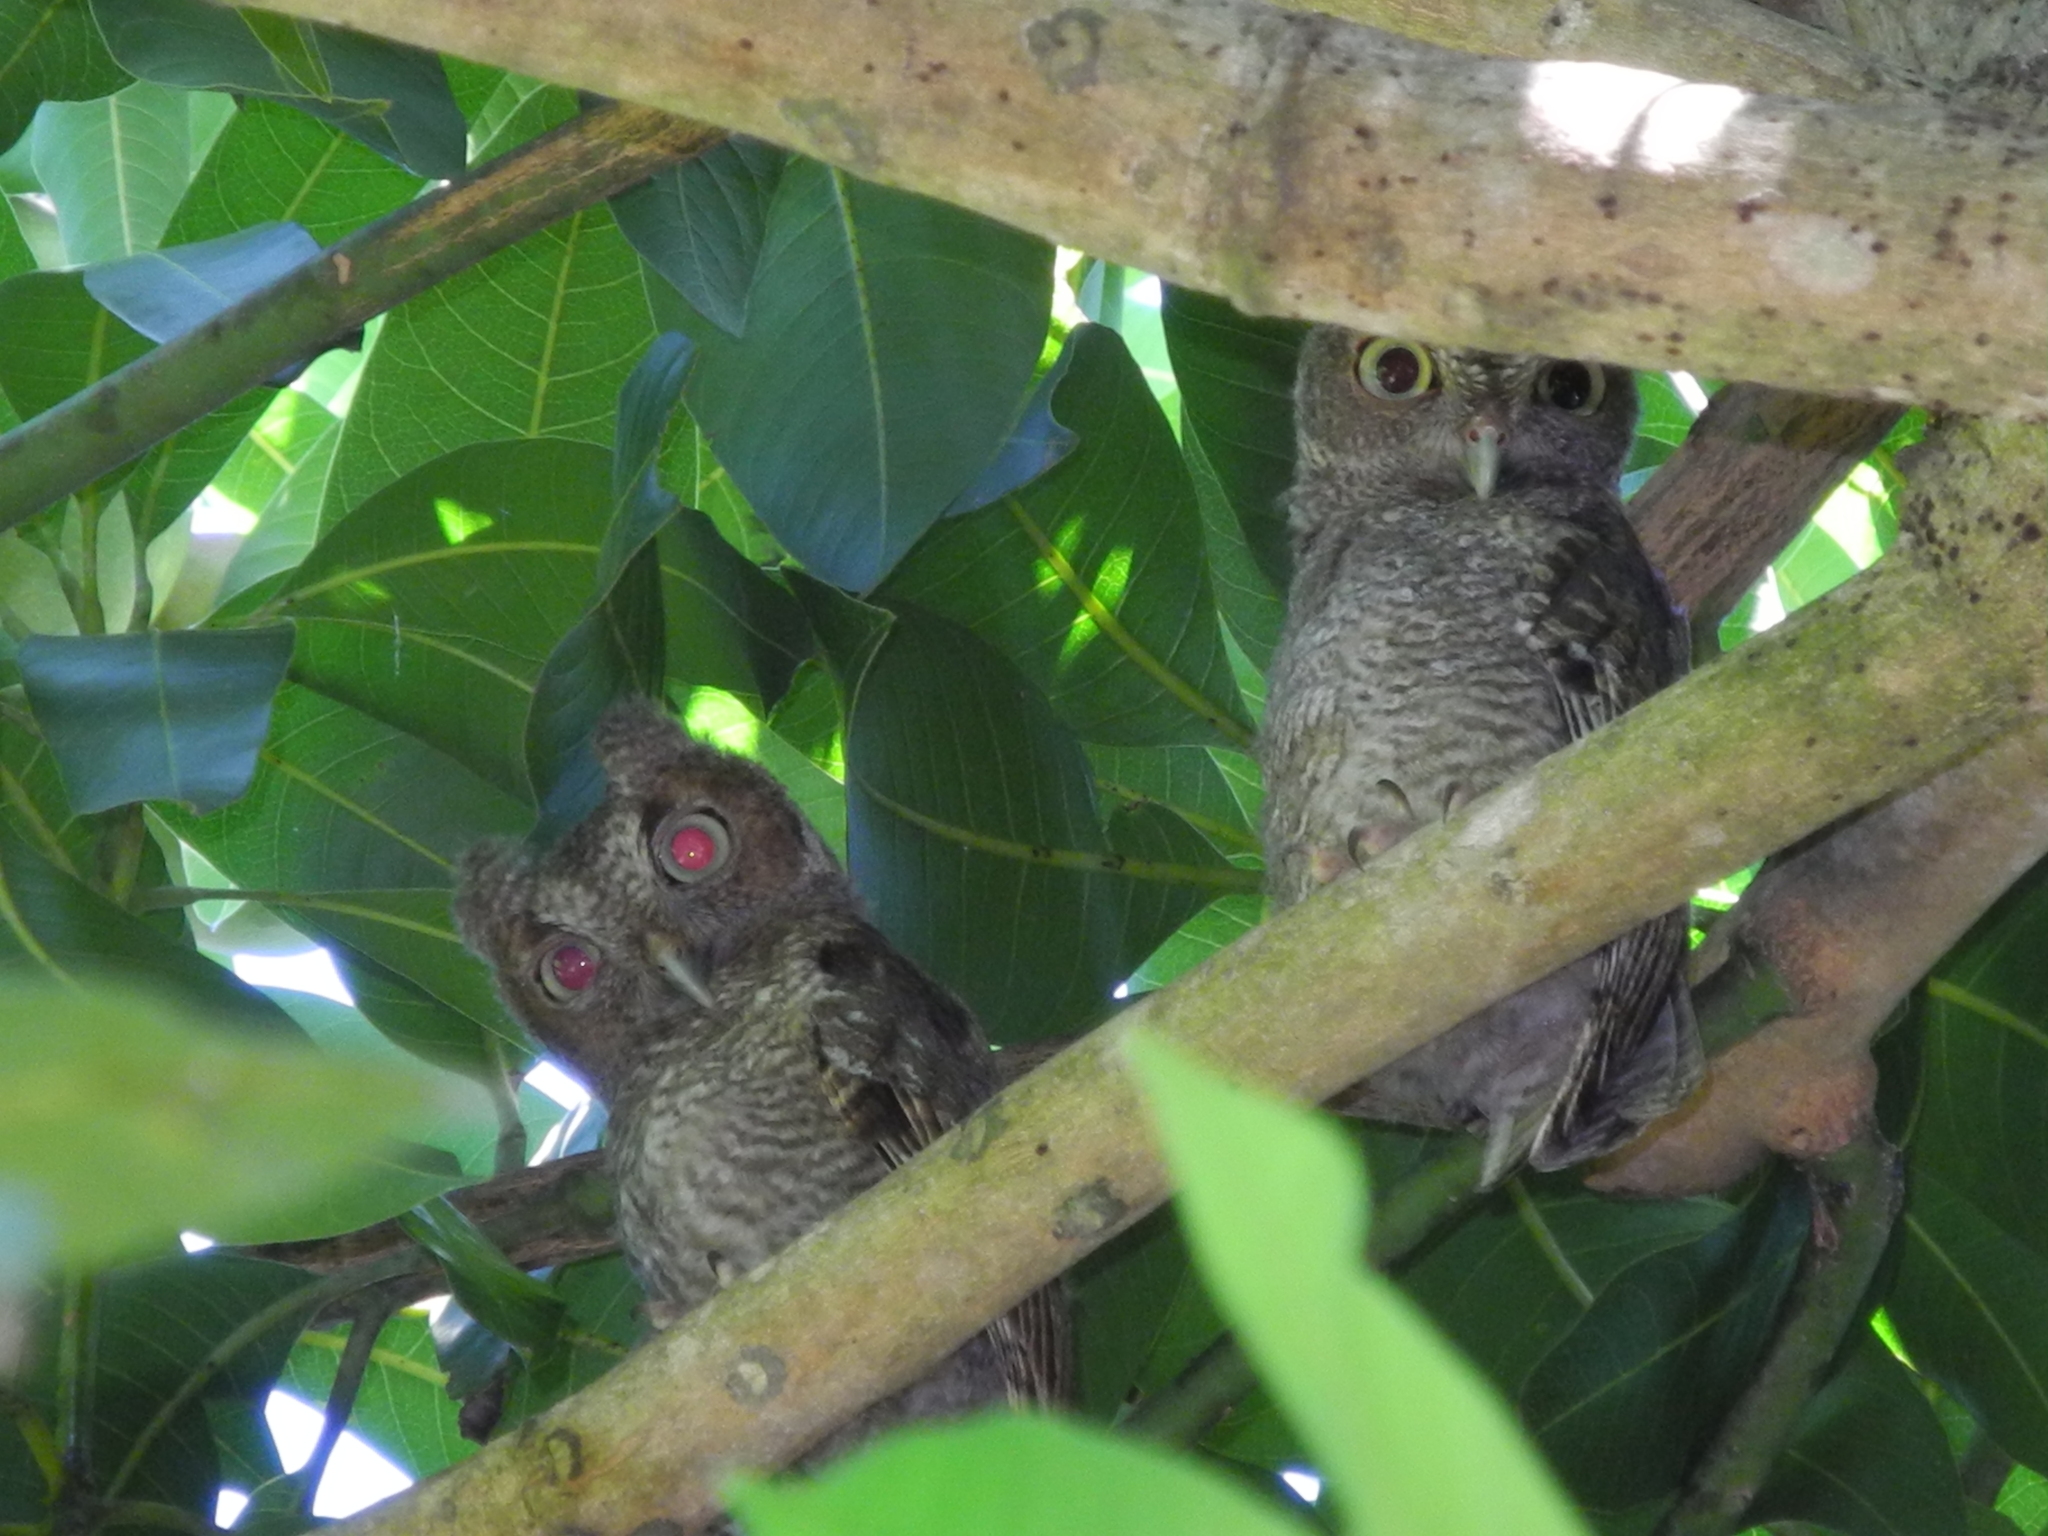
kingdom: Animalia
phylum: Chordata
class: Aves
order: Strigiformes
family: Strigidae
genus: Megascops
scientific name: Megascops asio
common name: Eastern screech-owl
